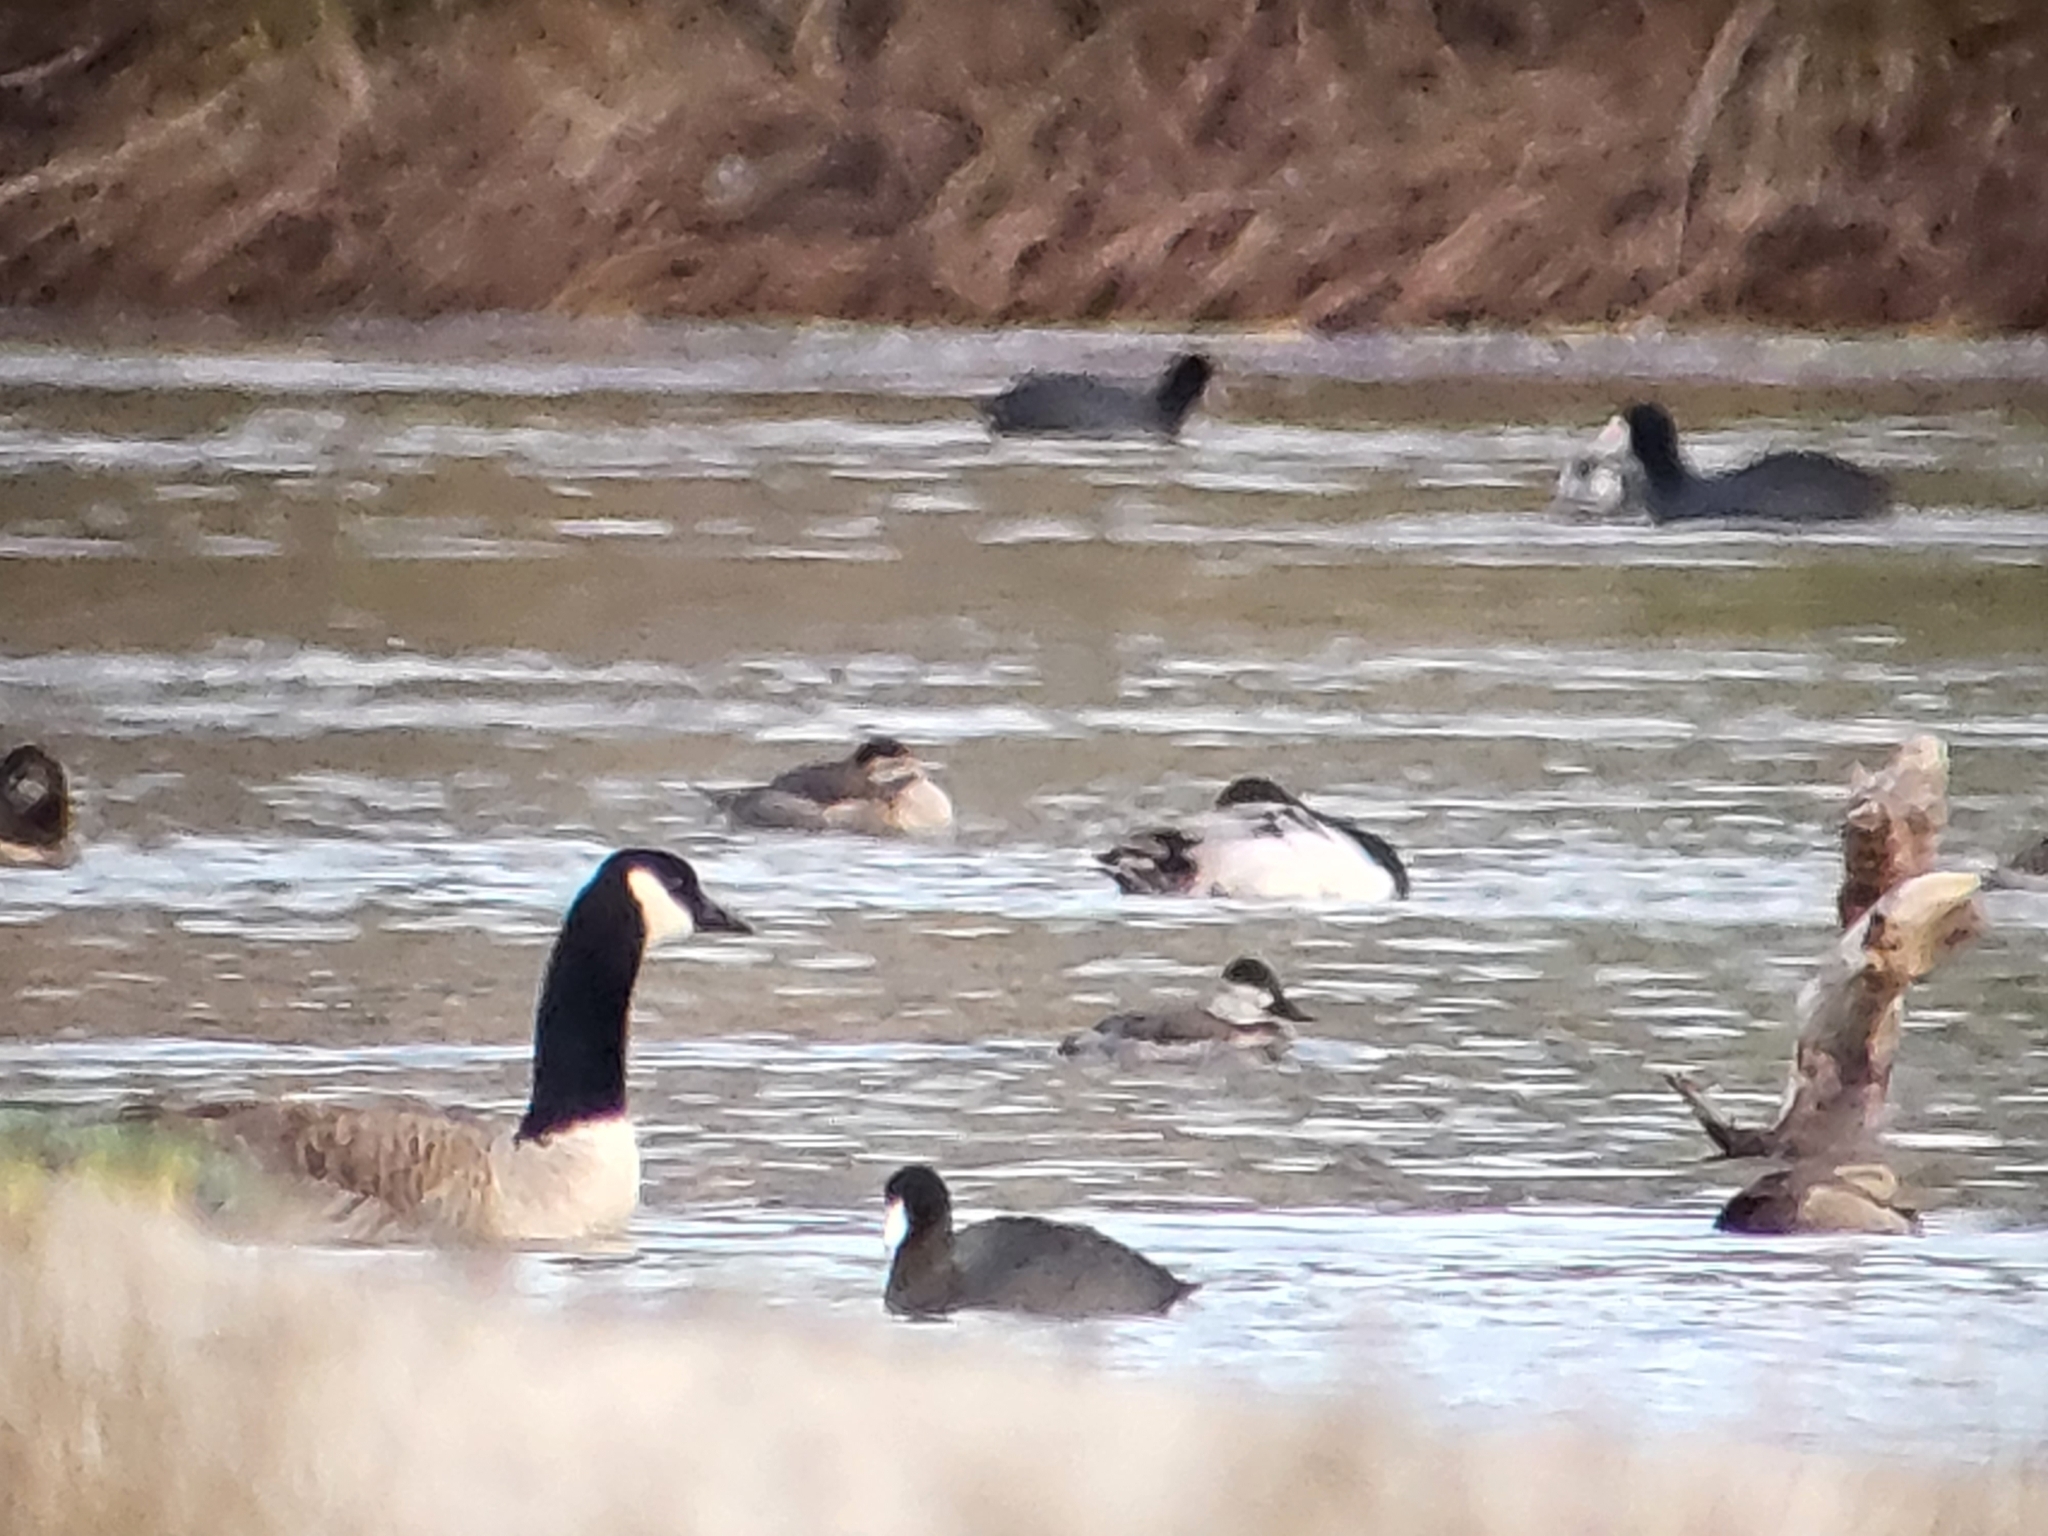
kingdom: Animalia
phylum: Chordata
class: Aves
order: Gruiformes
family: Rallidae
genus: Fulica
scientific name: Fulica americana
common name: American coot
